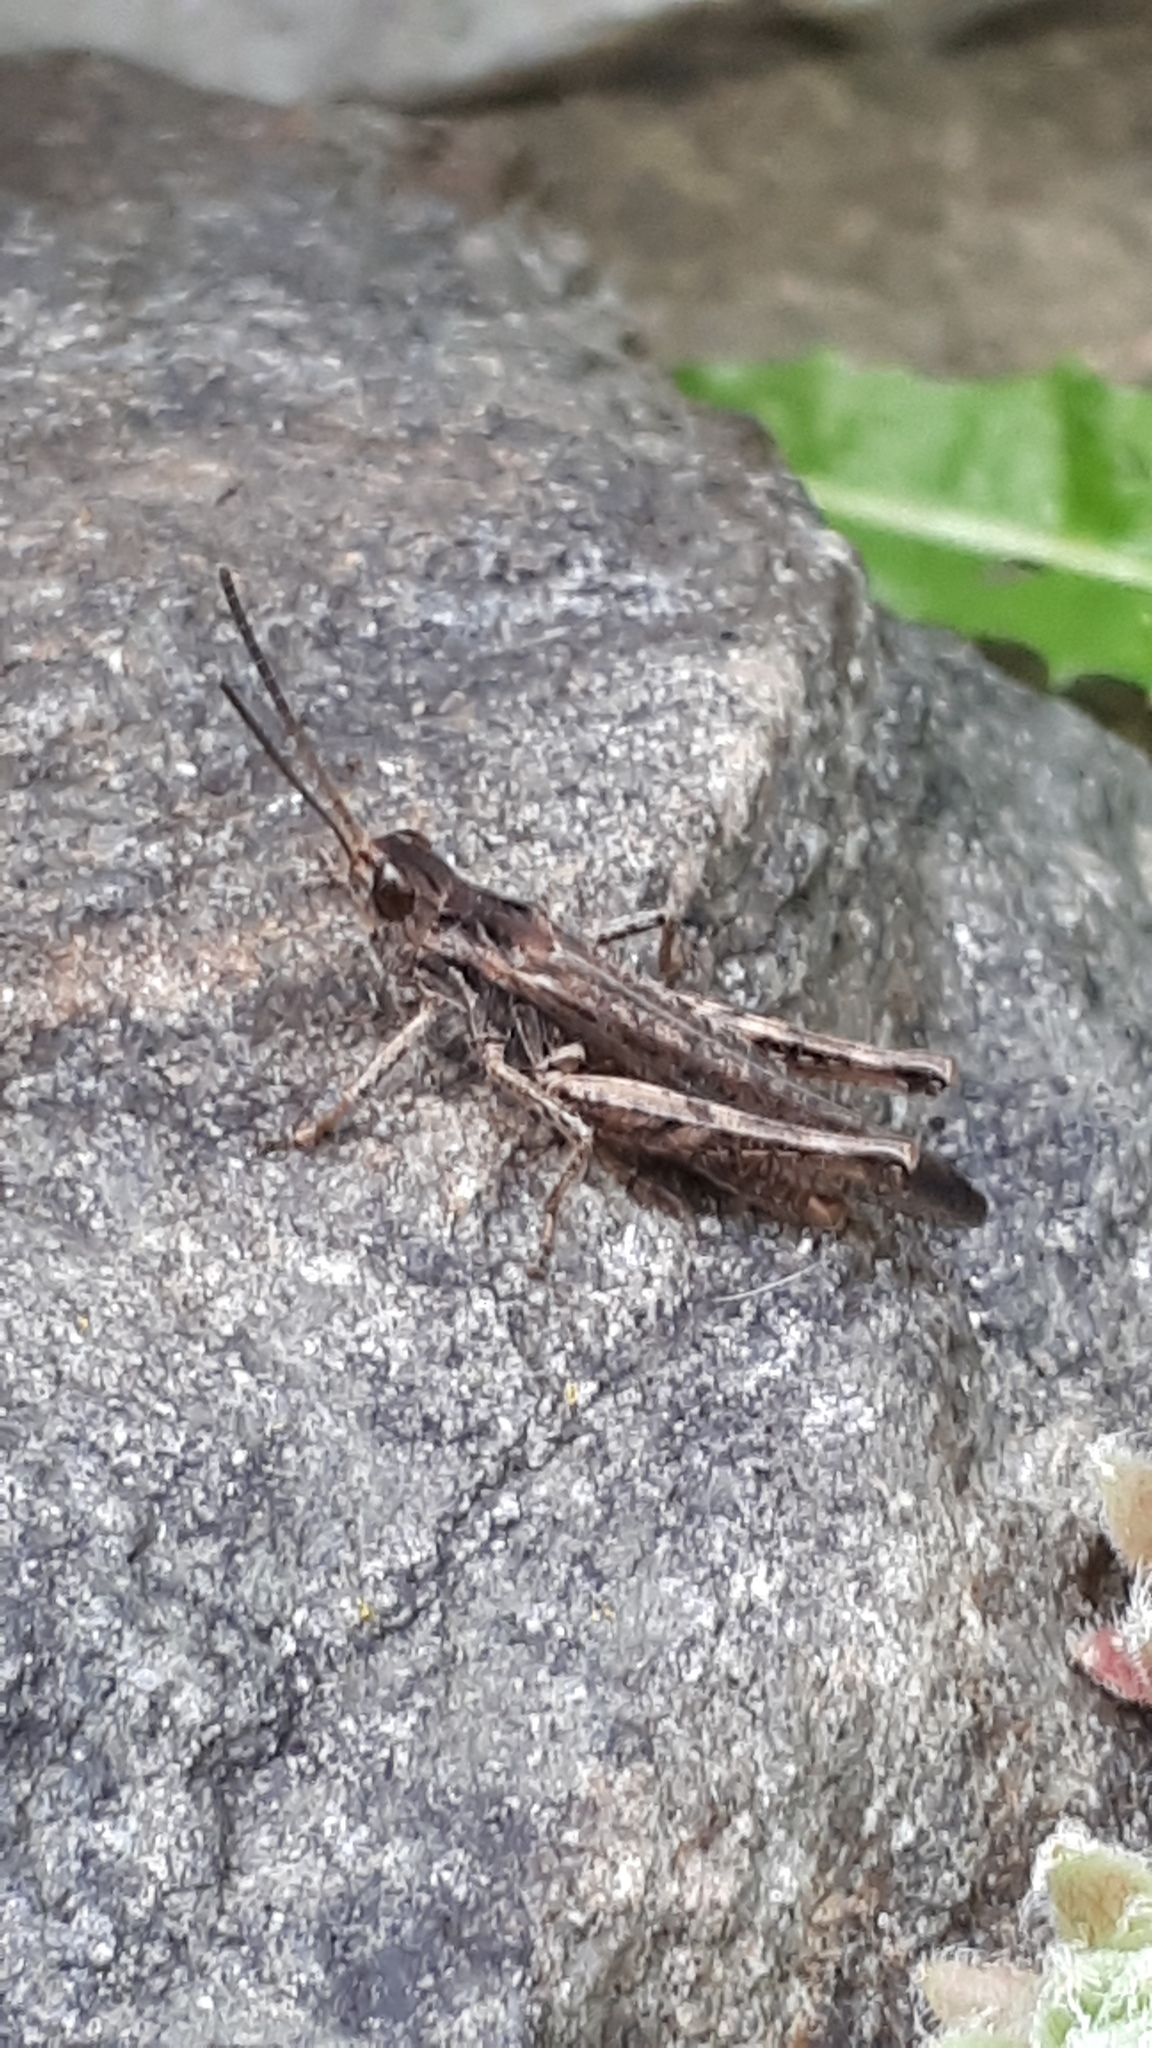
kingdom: Animalia
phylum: Arthropoda
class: Insecta
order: Orthoptera
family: Acrididae
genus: Chorthippus
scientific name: Chorthippus brunneus
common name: Field grasshopper
